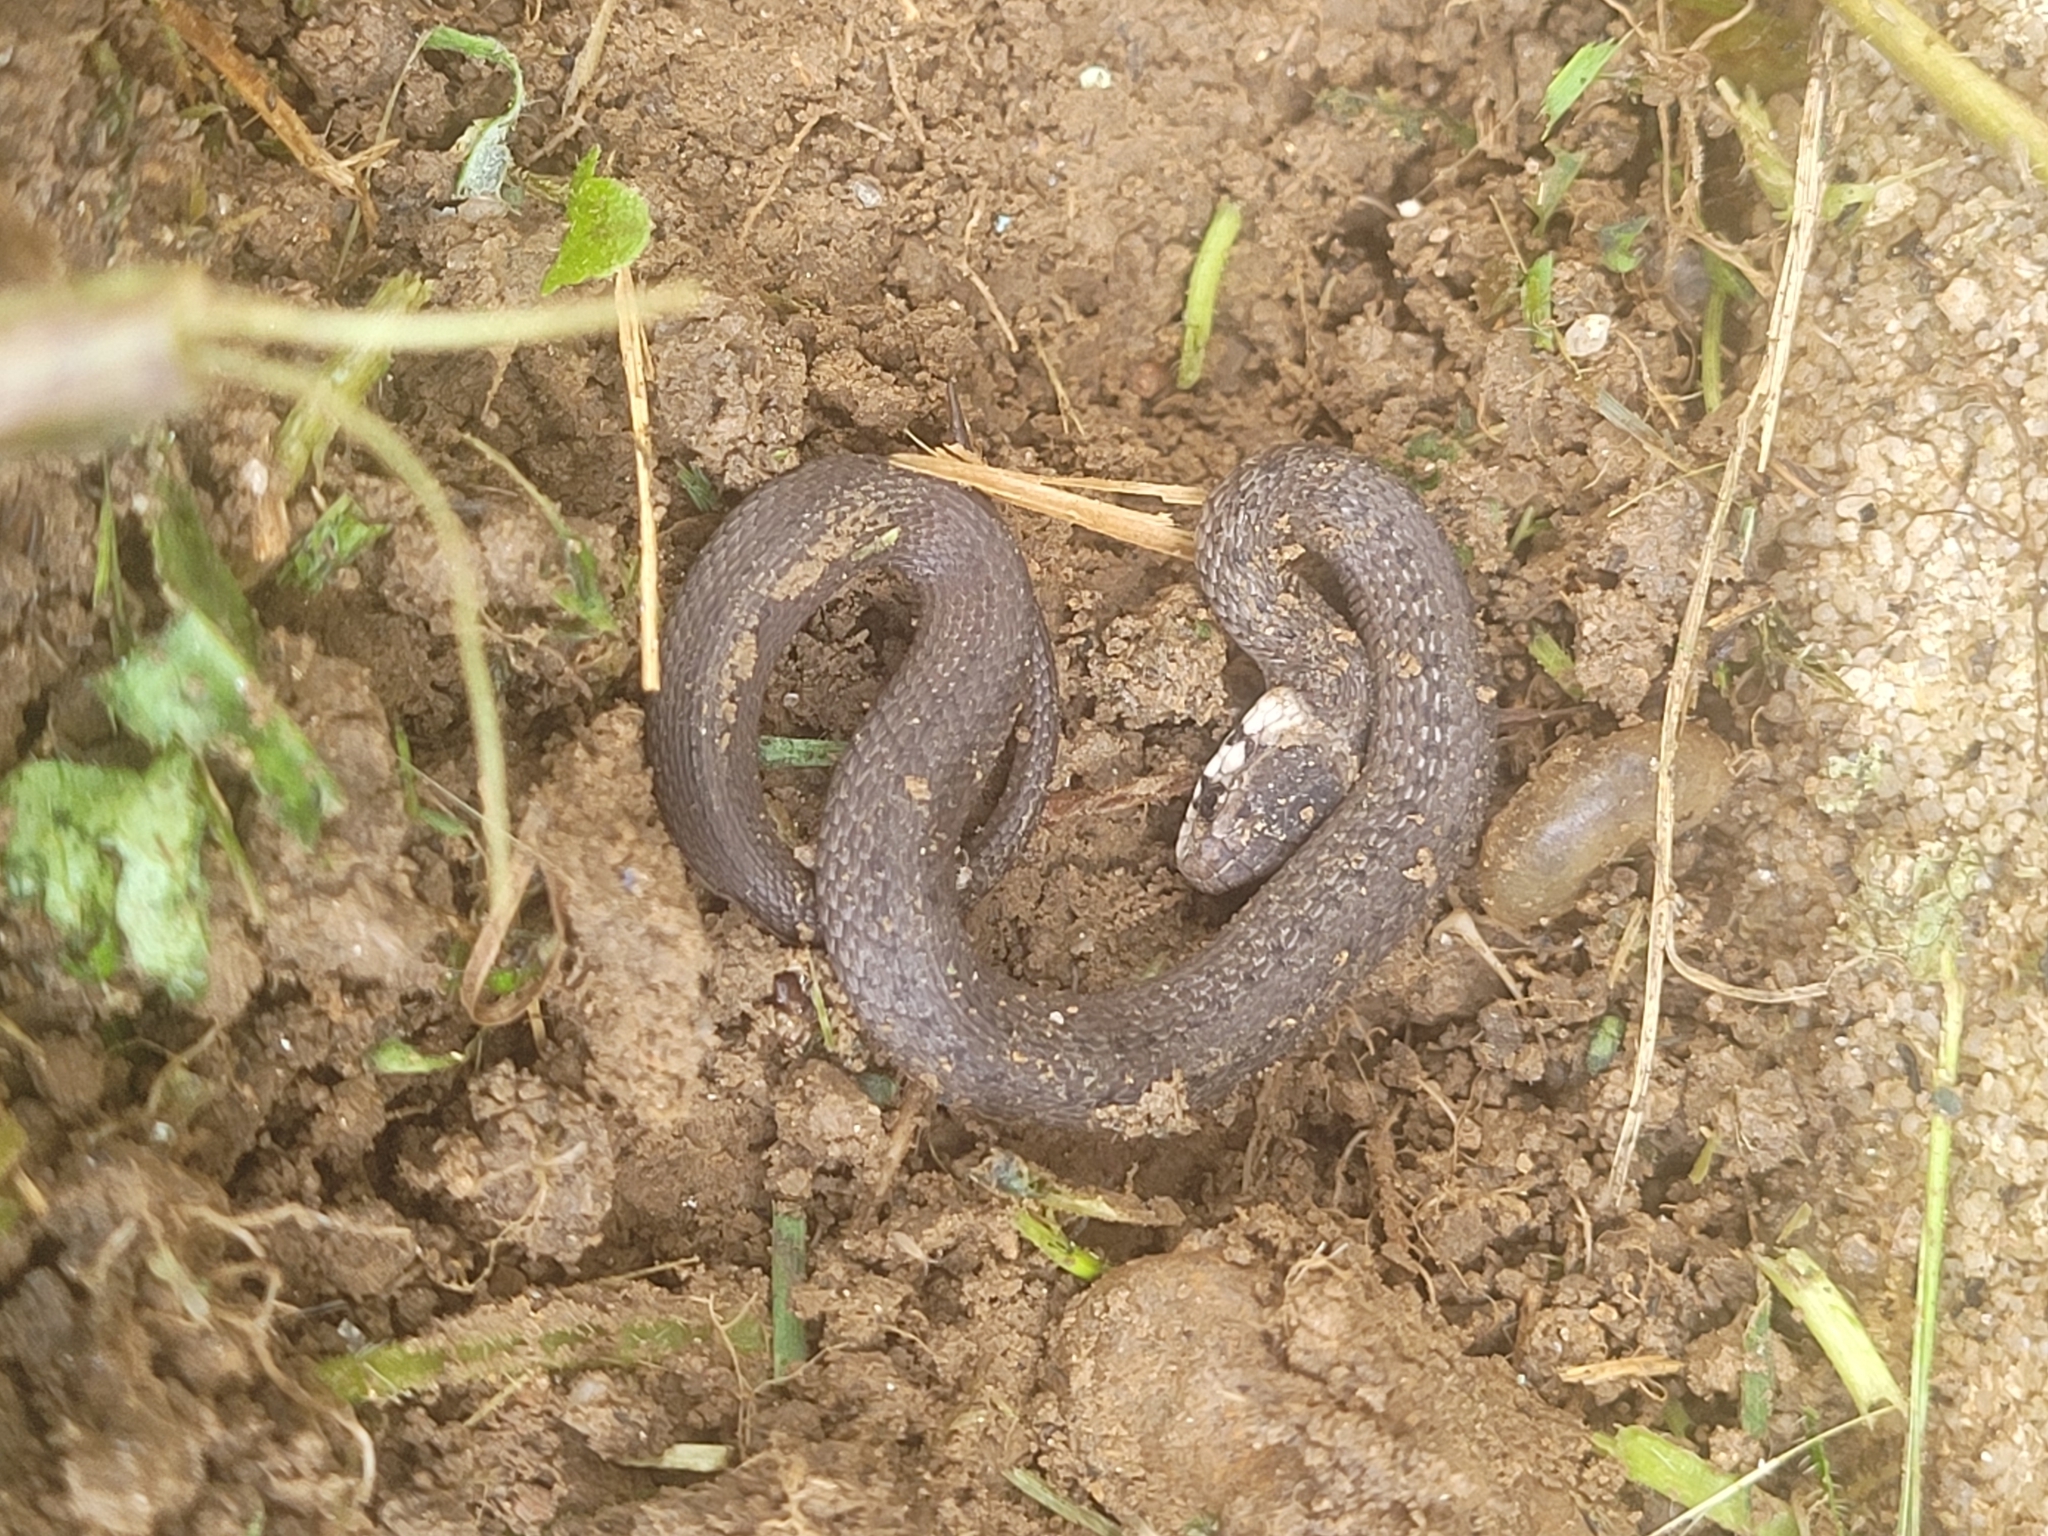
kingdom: Animalia
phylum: Chordata
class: Squamata
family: Colubridae
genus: Storeria
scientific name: Storeria dekayi
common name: (dekay’s) brown snake
